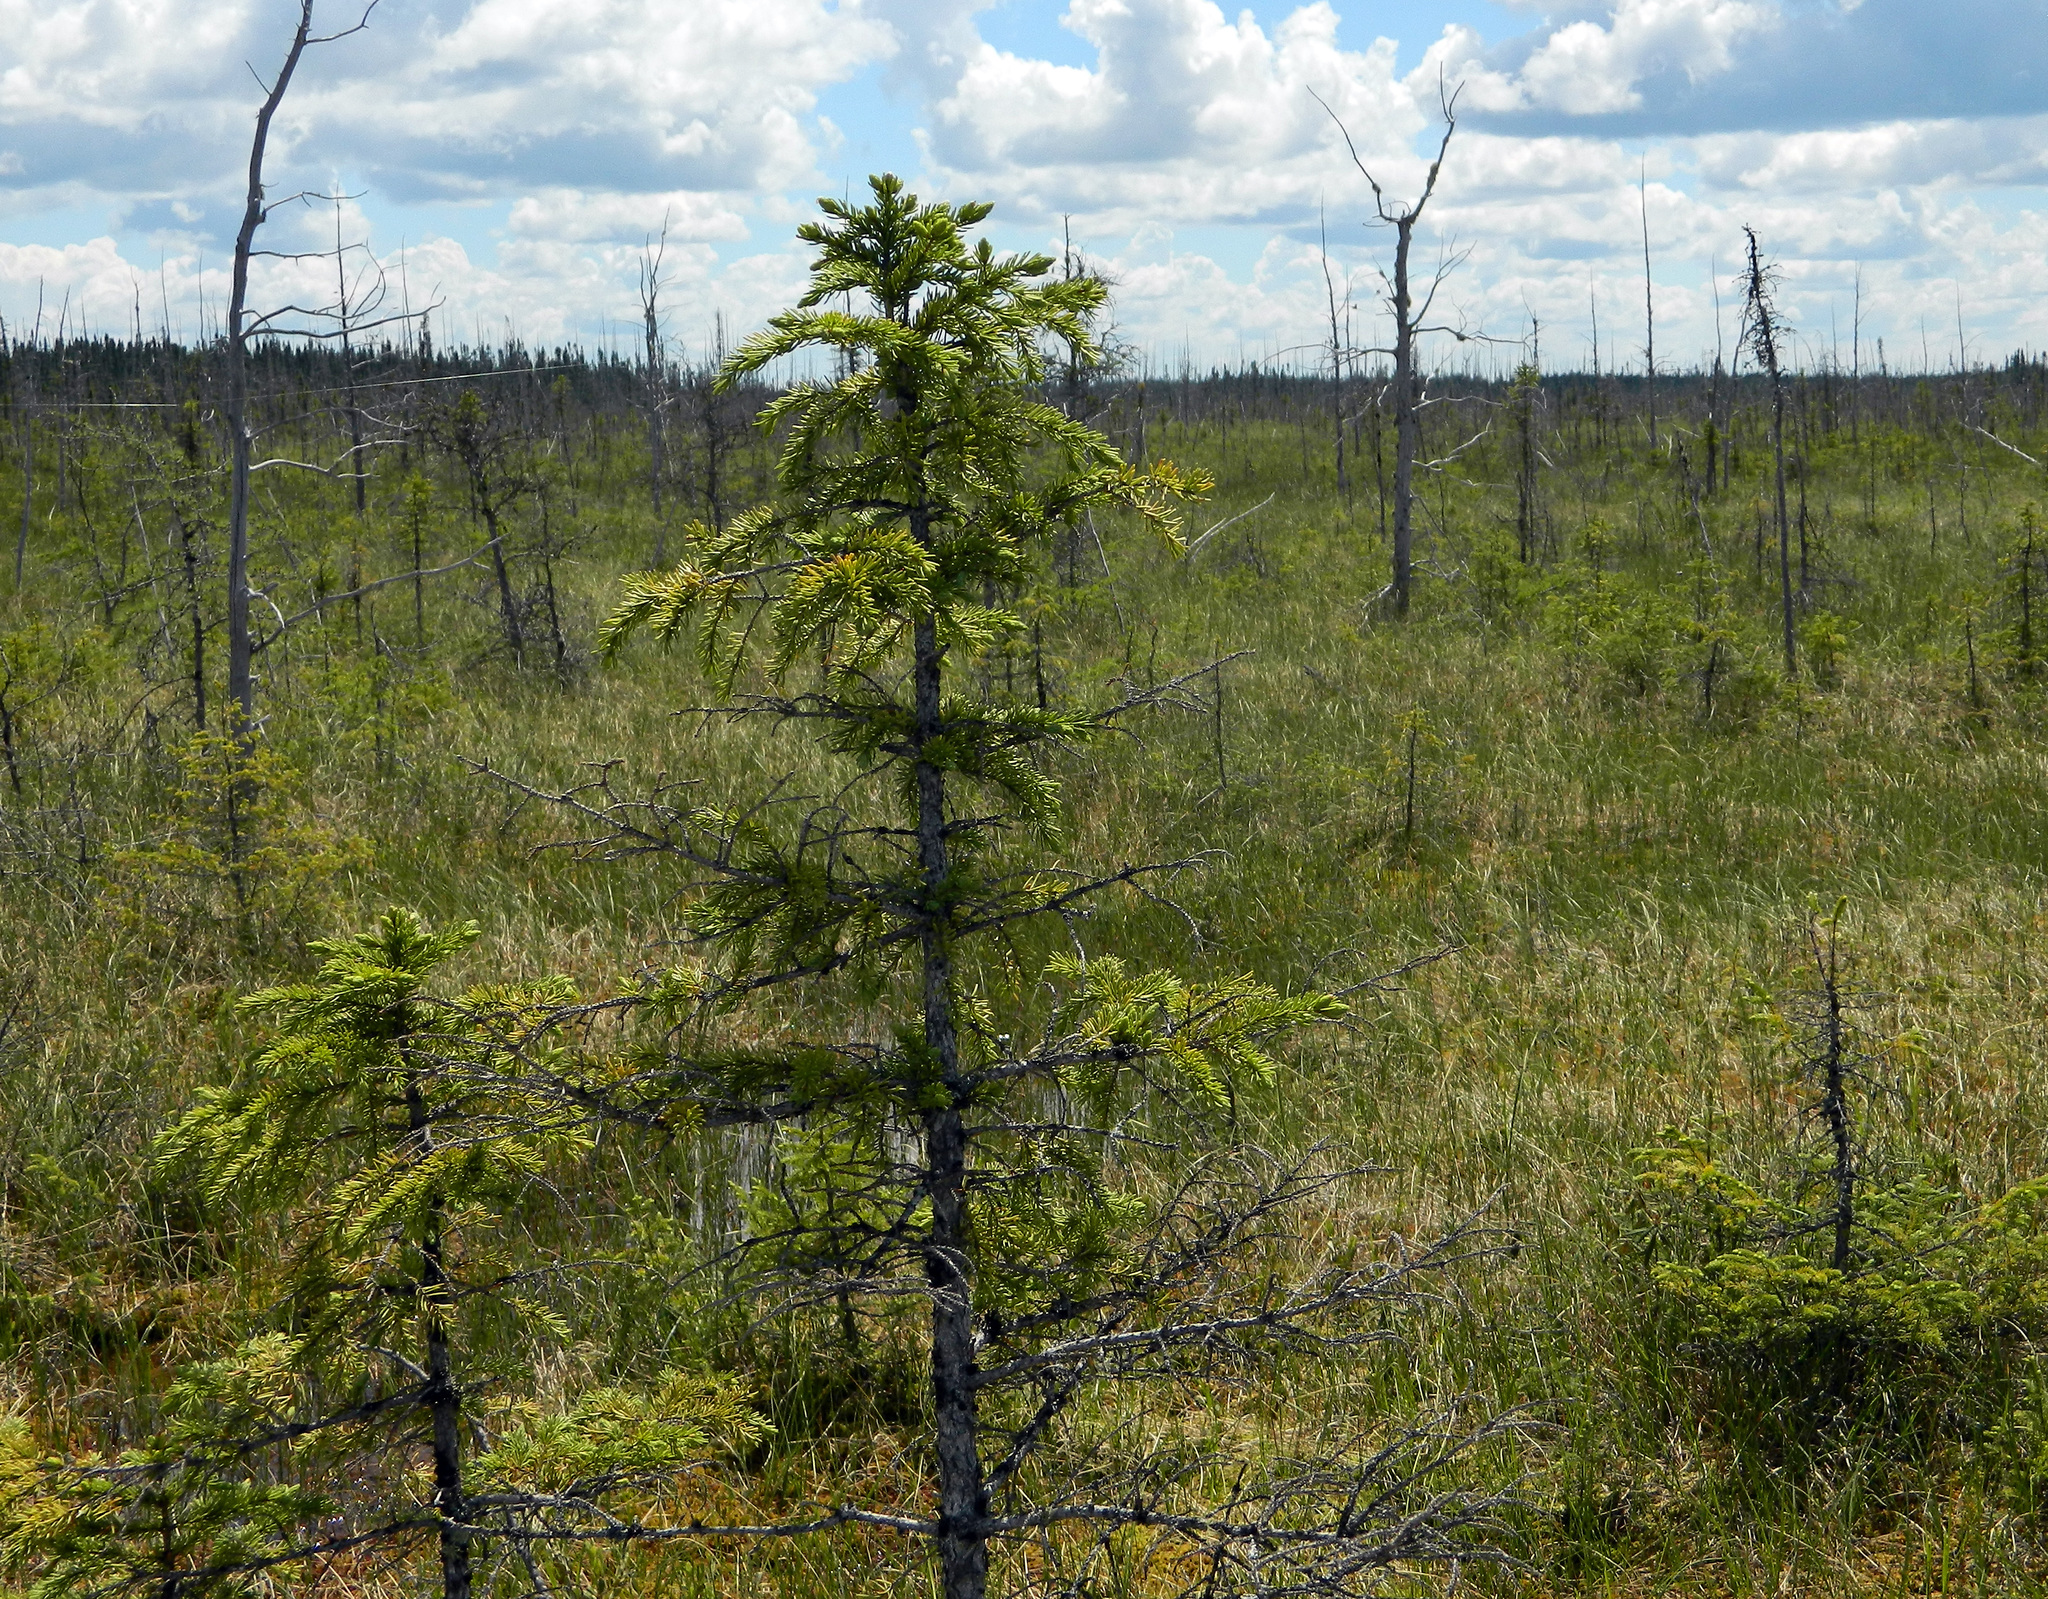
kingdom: Plantae
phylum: Tracheophyta
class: Pinopsida
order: Pinales
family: Pinaceae
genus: Picea
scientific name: Picea mariana
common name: Black spruce
